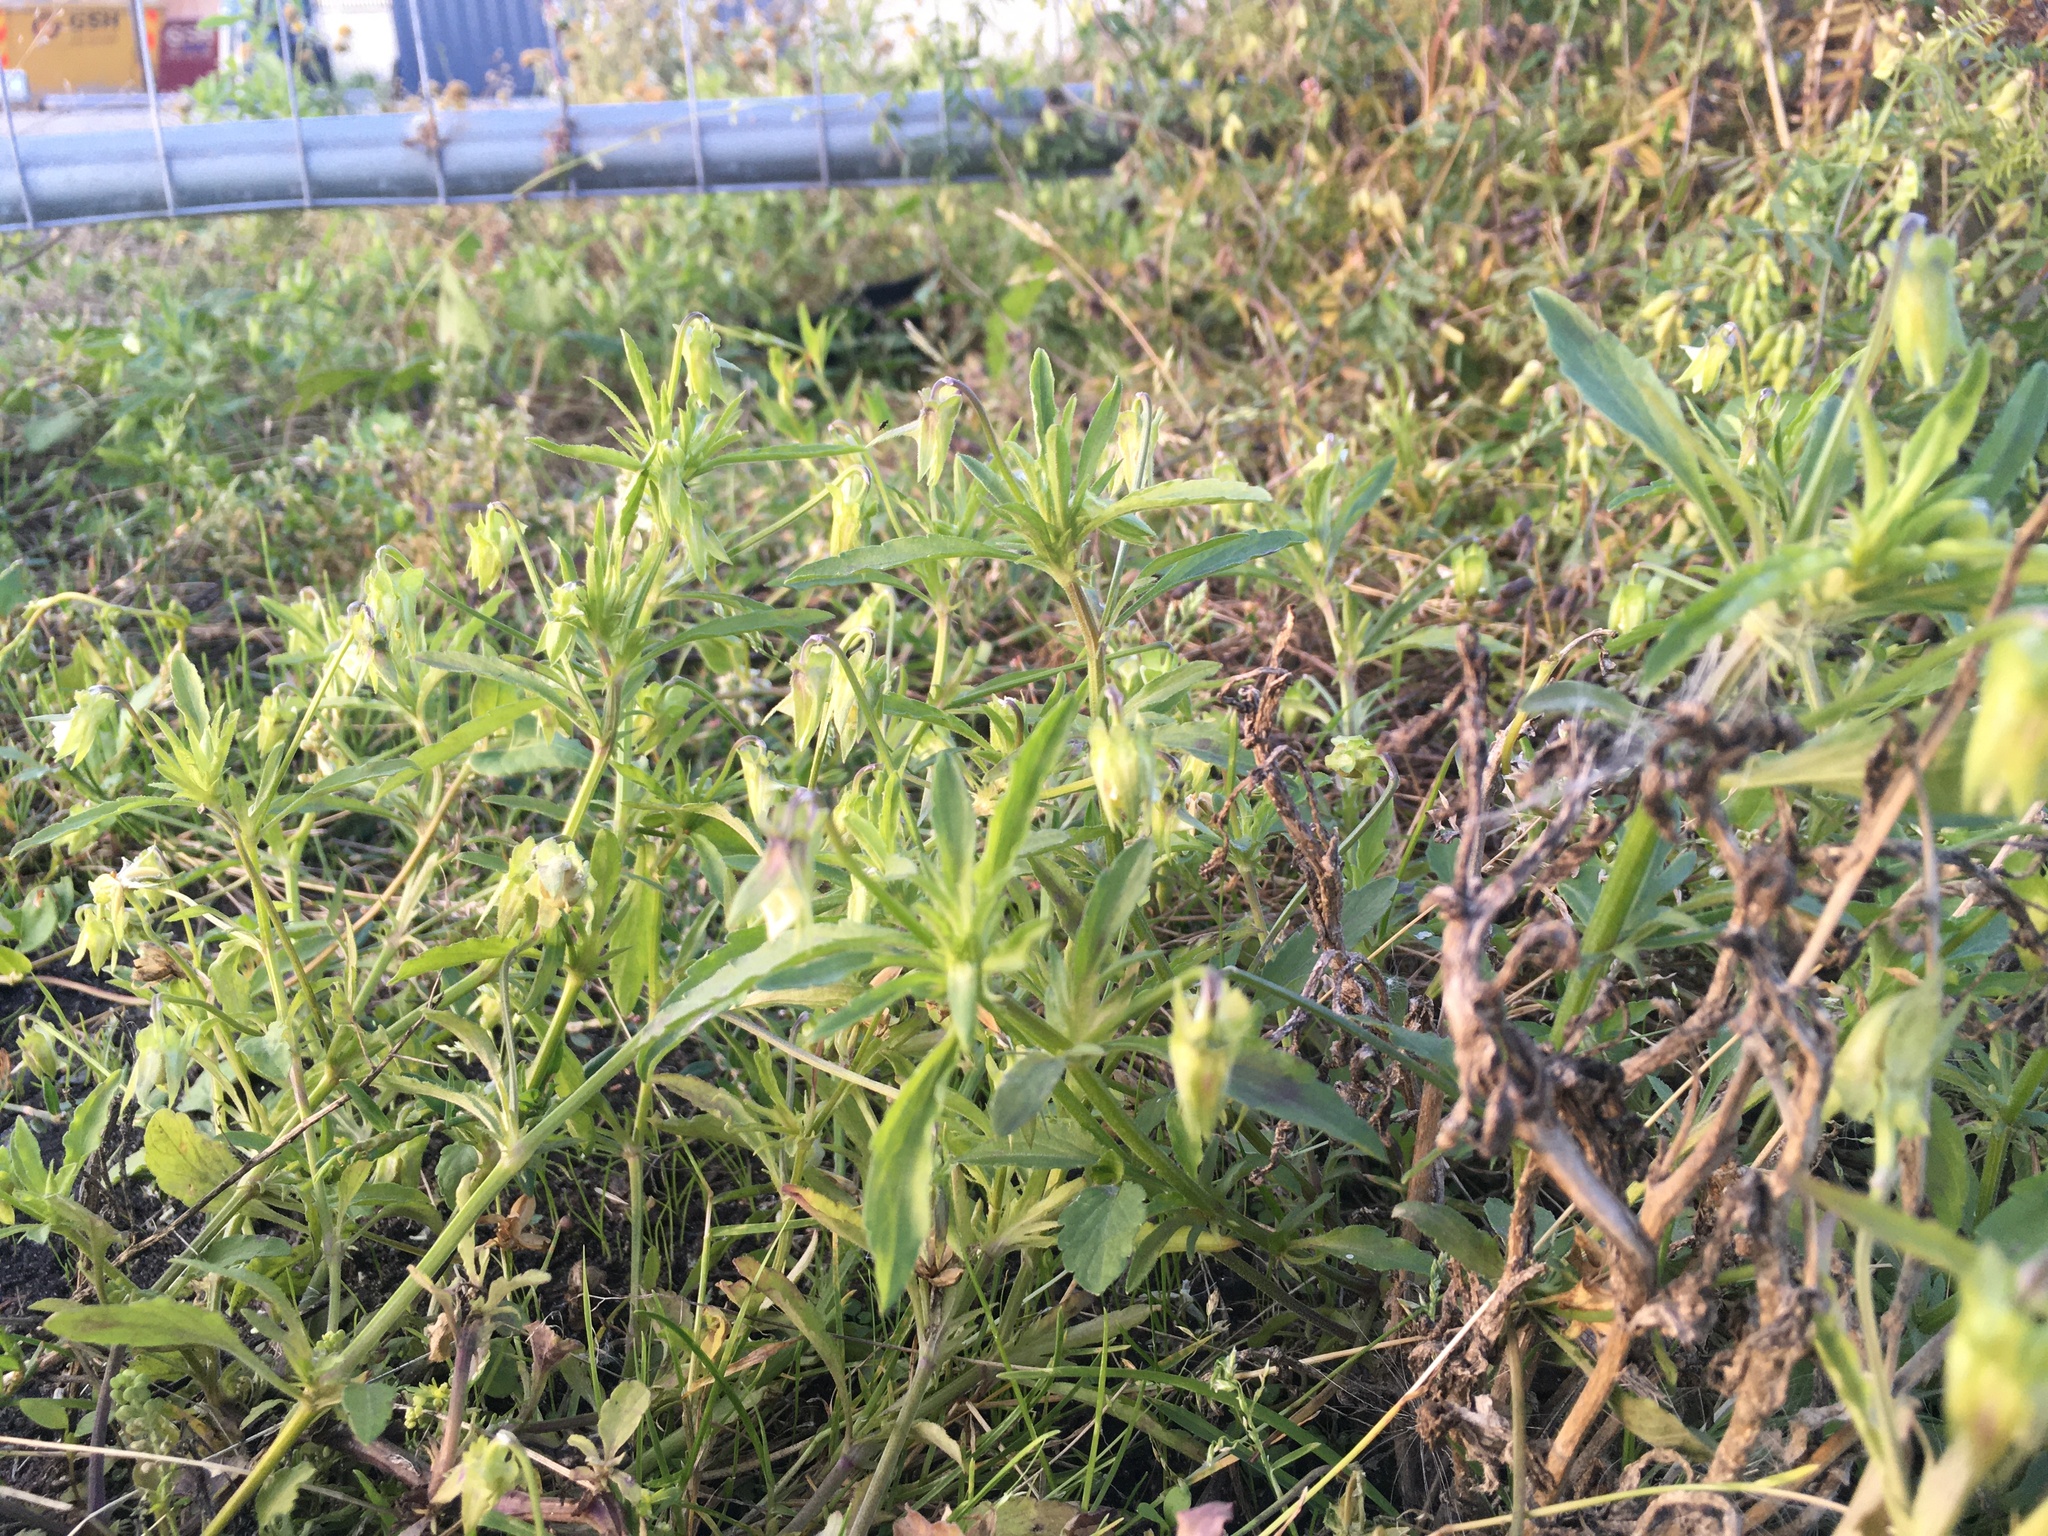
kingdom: Plantae
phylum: Tracheophyta
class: Magnoliopsida
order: Malpighiales
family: Violaceae
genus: Viola
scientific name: Viola arvensis
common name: Field pansy
